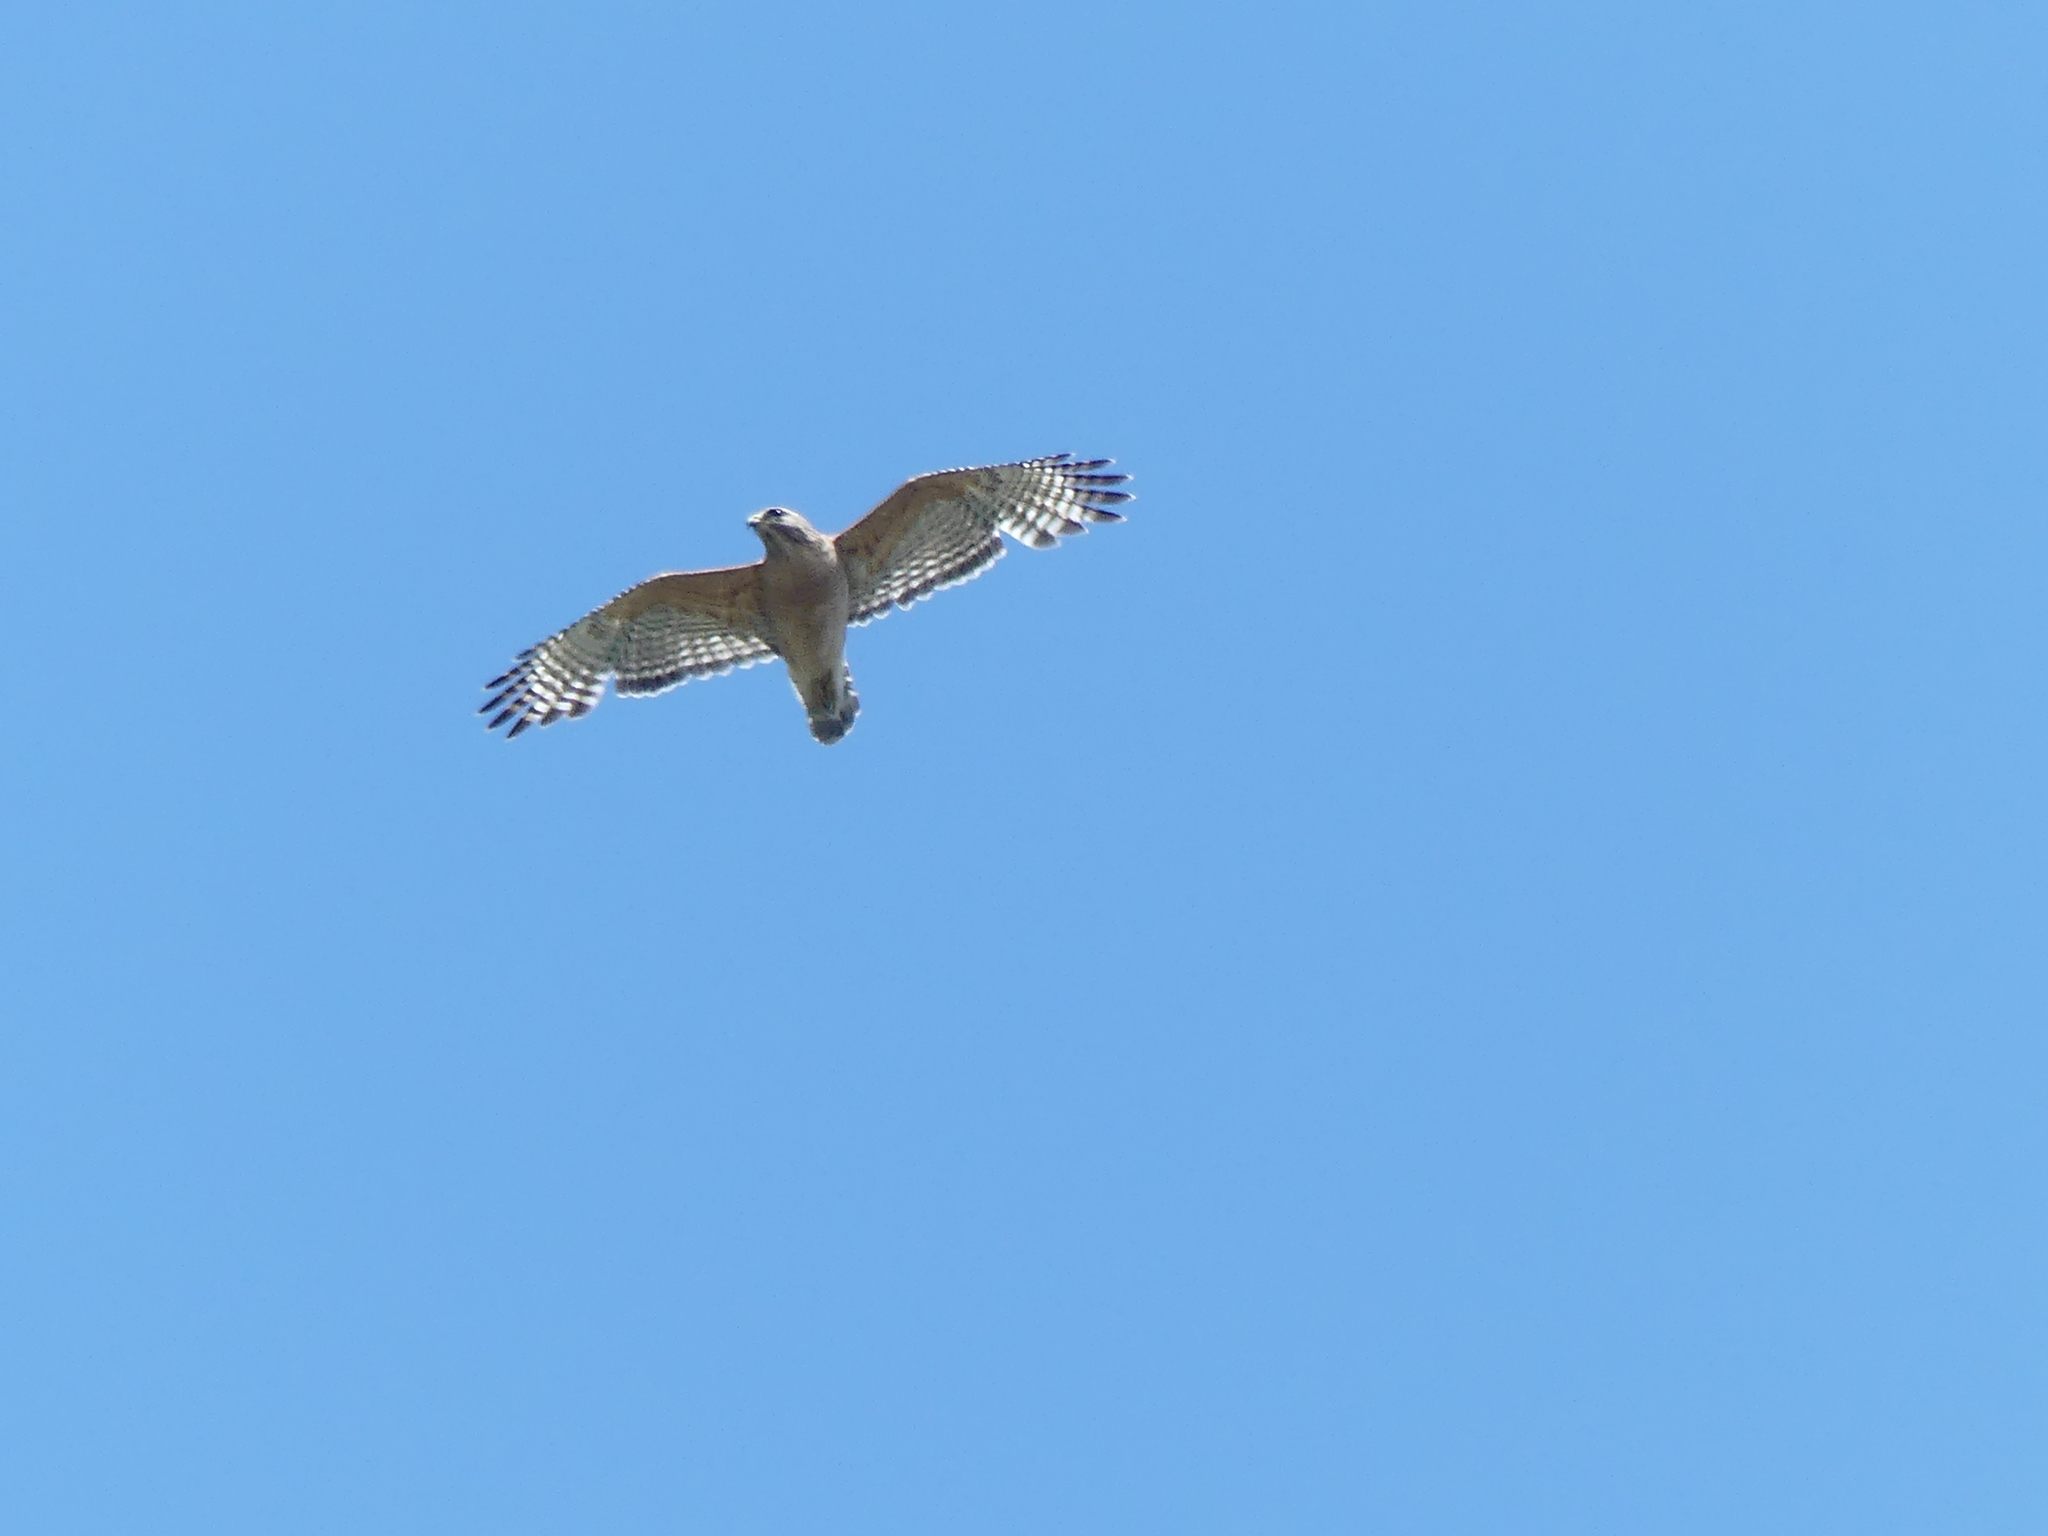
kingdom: Animalia
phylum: Chordata
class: Aves
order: Accipitriformes
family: Accipitridae
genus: Buteo
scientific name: Buteo lineatus
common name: Red-shouldered hawk
